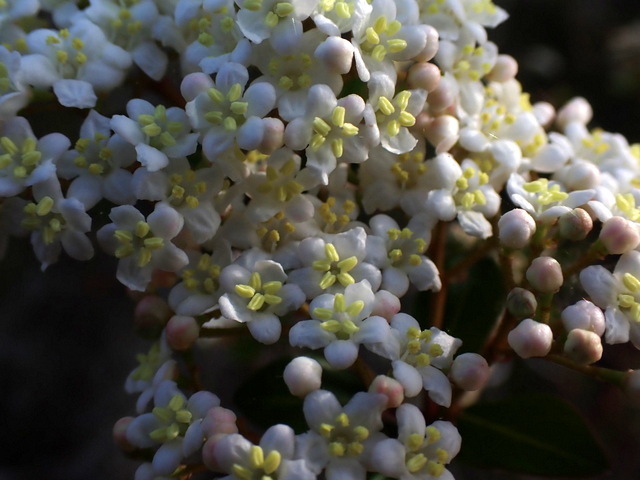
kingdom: Plantae
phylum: Tracheophyta
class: Magnoliopsida
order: Dipsacales
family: Viburnaceae
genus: Viburnum
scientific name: Viburnum obovatum
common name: Walter's viburnum
